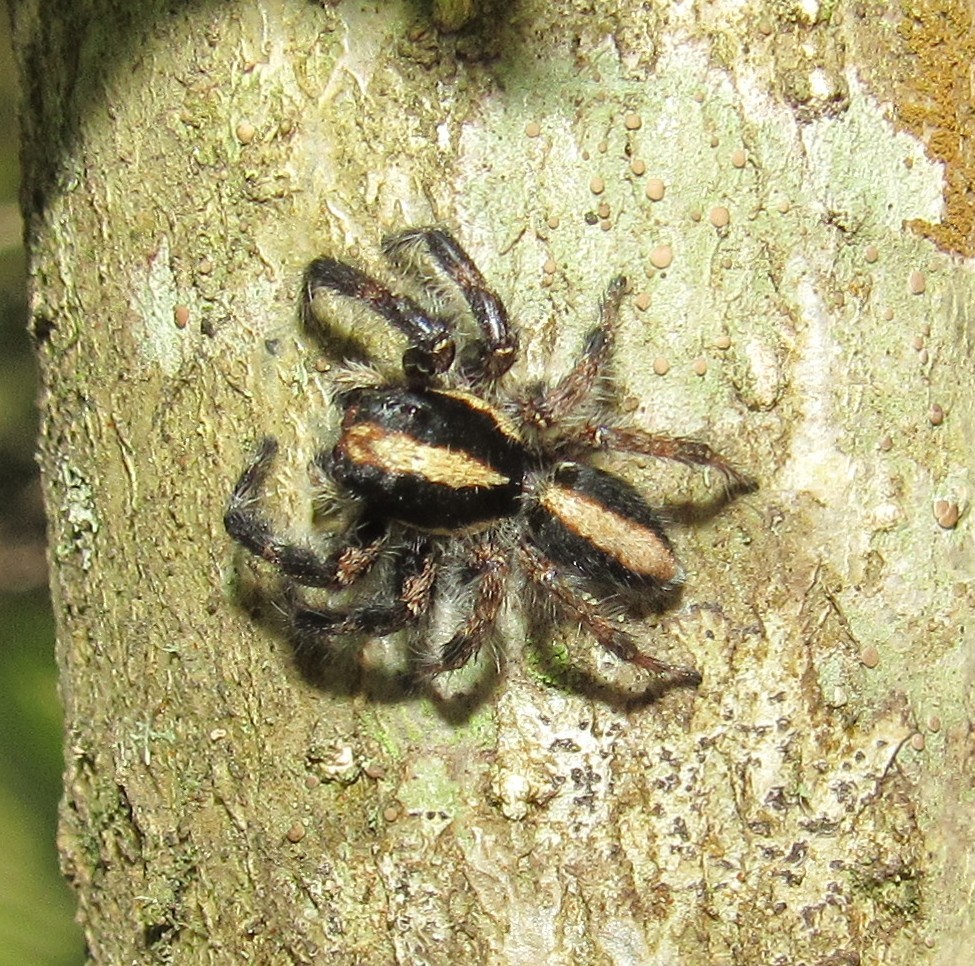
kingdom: Animalia
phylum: Arthropoda
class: Arachnida
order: Araneae
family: Salticidae
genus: Megafreya
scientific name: Megafreya sutrix
